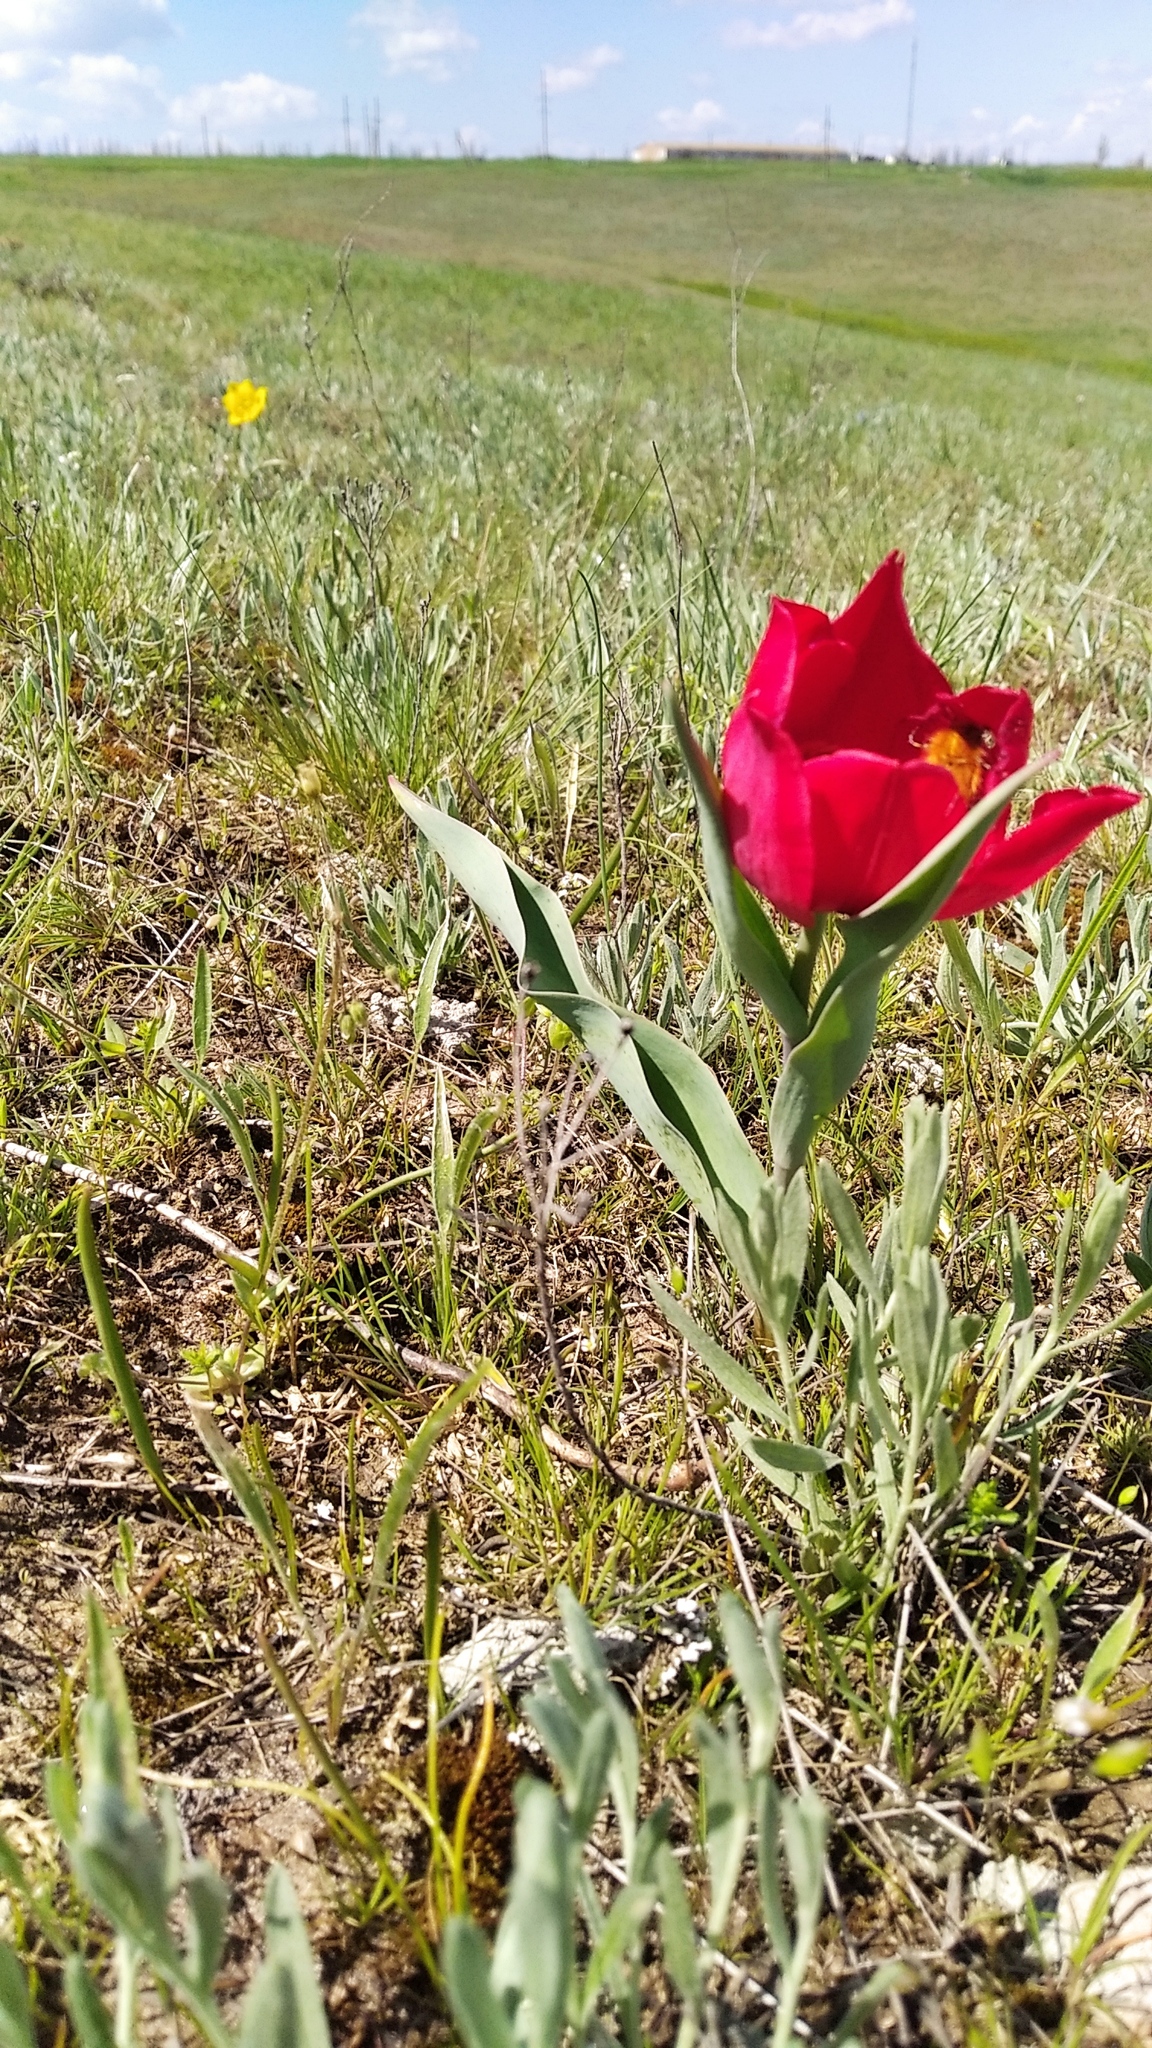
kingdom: Plantae
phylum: Tracheophyta
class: Liliopsida
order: Liliales
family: Liliaceae
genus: Tulipa
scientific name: Tulipa suaveolens
